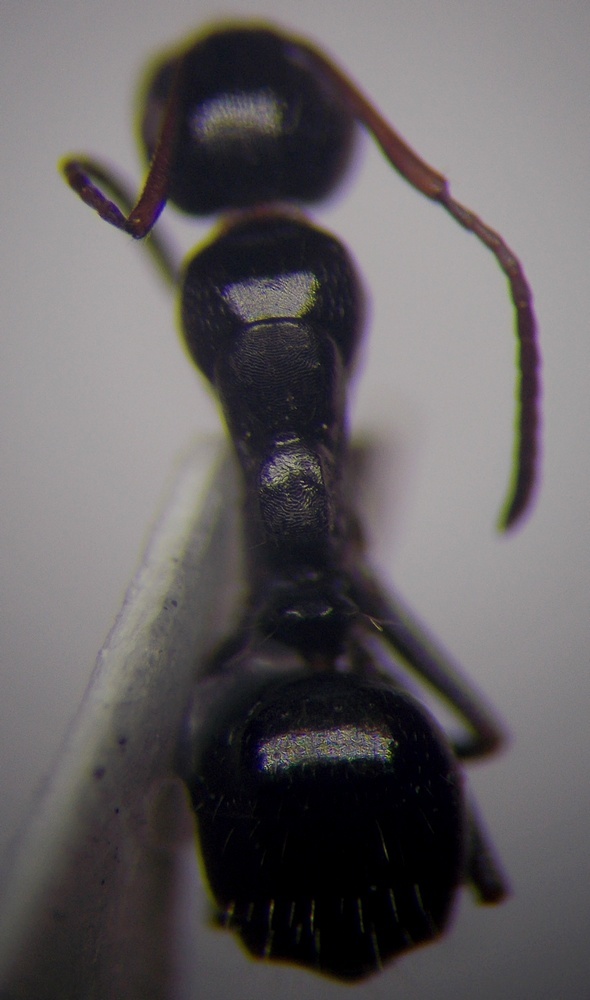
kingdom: Animalia
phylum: Arthropoda
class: Insecta
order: Hymenoptera
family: Formicidae
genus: Camponotus
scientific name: Camponotus piceus
